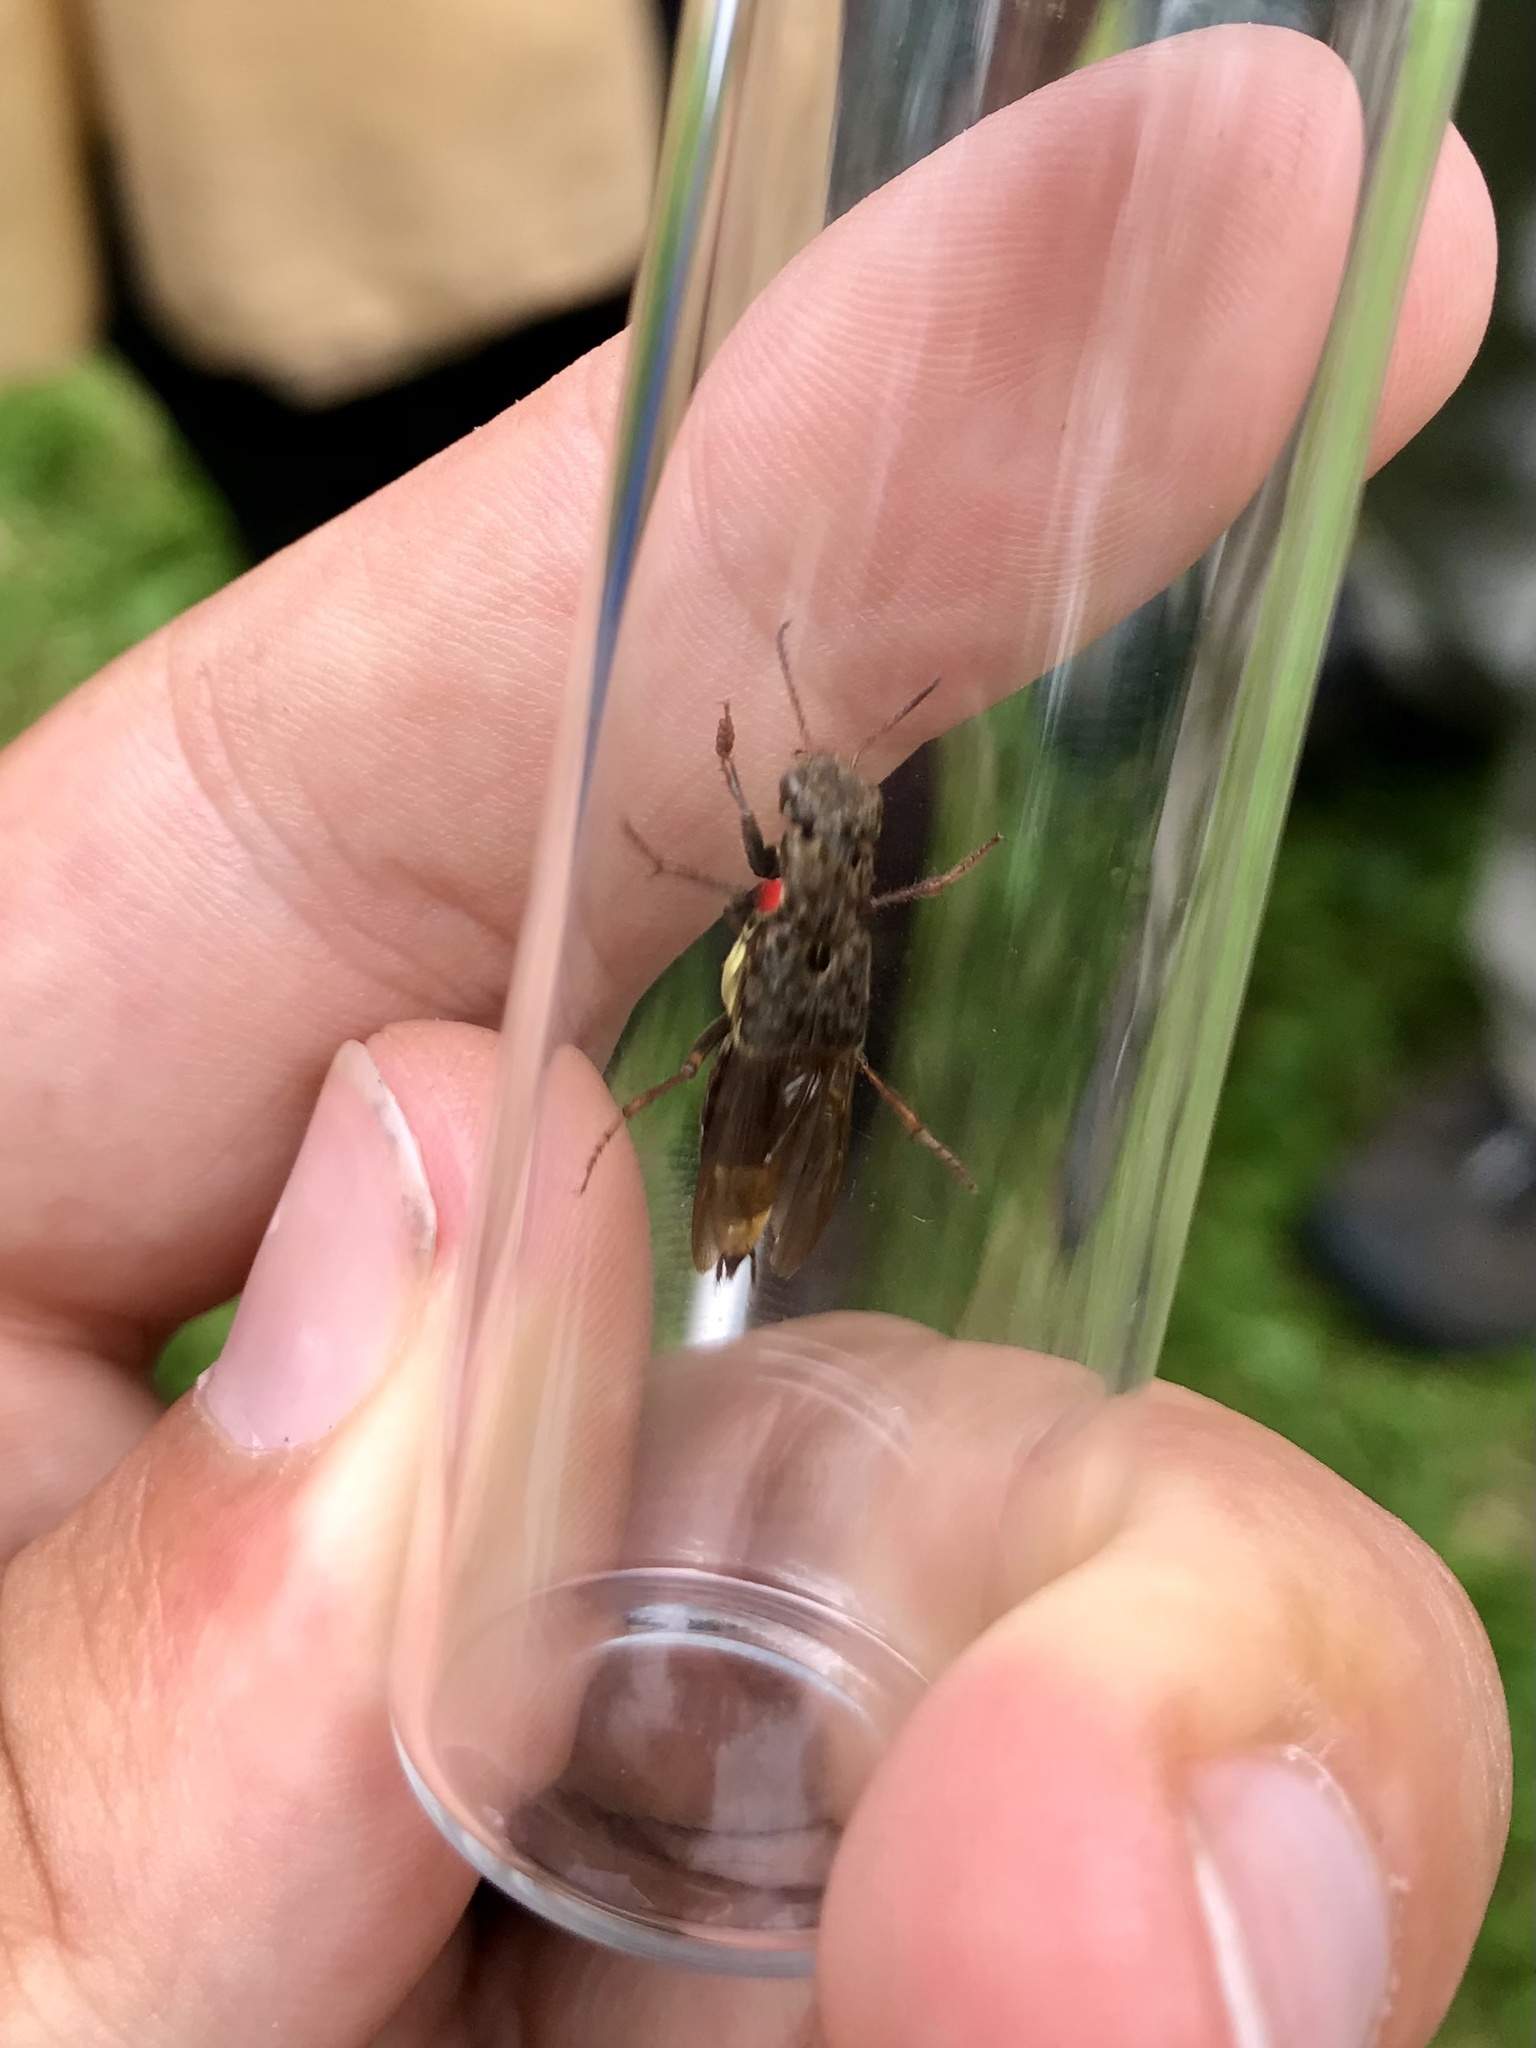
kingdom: Animalia
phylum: Arthropoda
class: Insecta
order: Coleoptera
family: Staphylinidae
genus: Ontholestes
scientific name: Ontholestes cingulatus
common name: Gold-and-brown rove beetle
